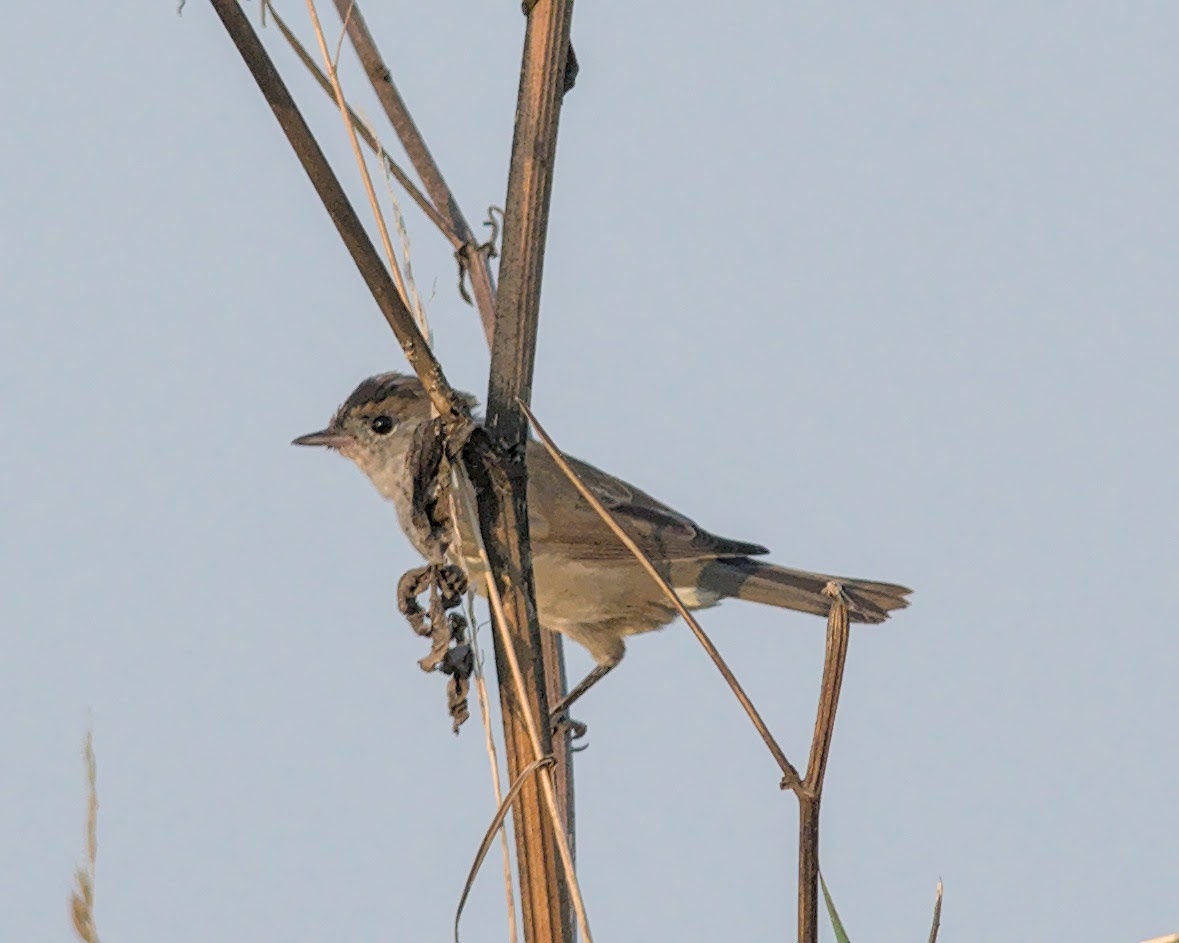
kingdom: Animalia
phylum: Chordata
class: Aves
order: Passeriformes
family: Sylviidae
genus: Sylvia
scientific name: Sylvia atricapilla
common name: Eurasian blackcap
